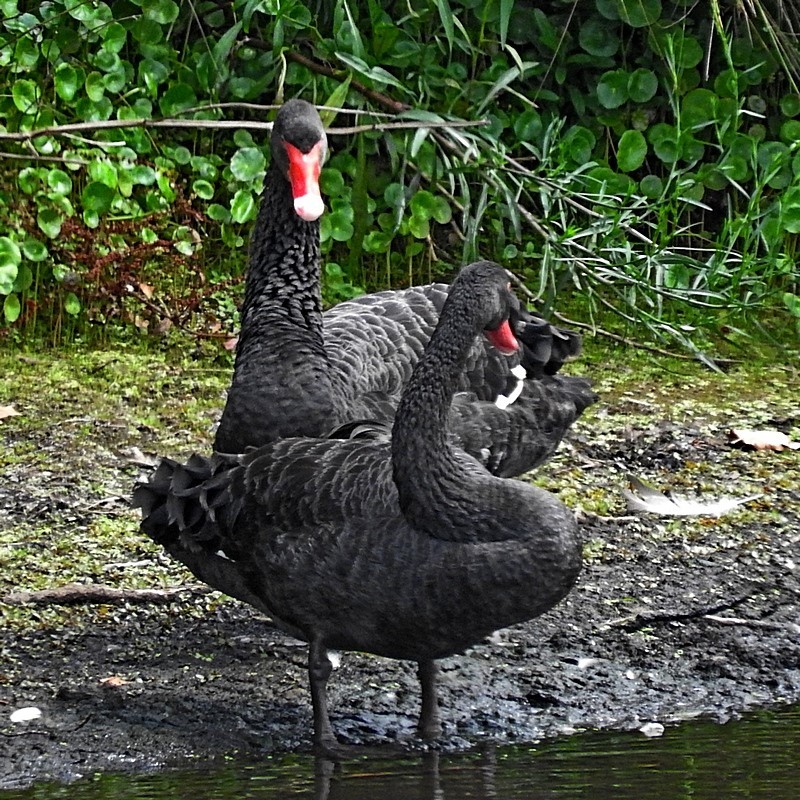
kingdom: Animalia
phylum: Chordata
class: Aves
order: Anseriformes
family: Anatidae
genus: Cygnus
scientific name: Cygnus atratus
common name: Black swan
